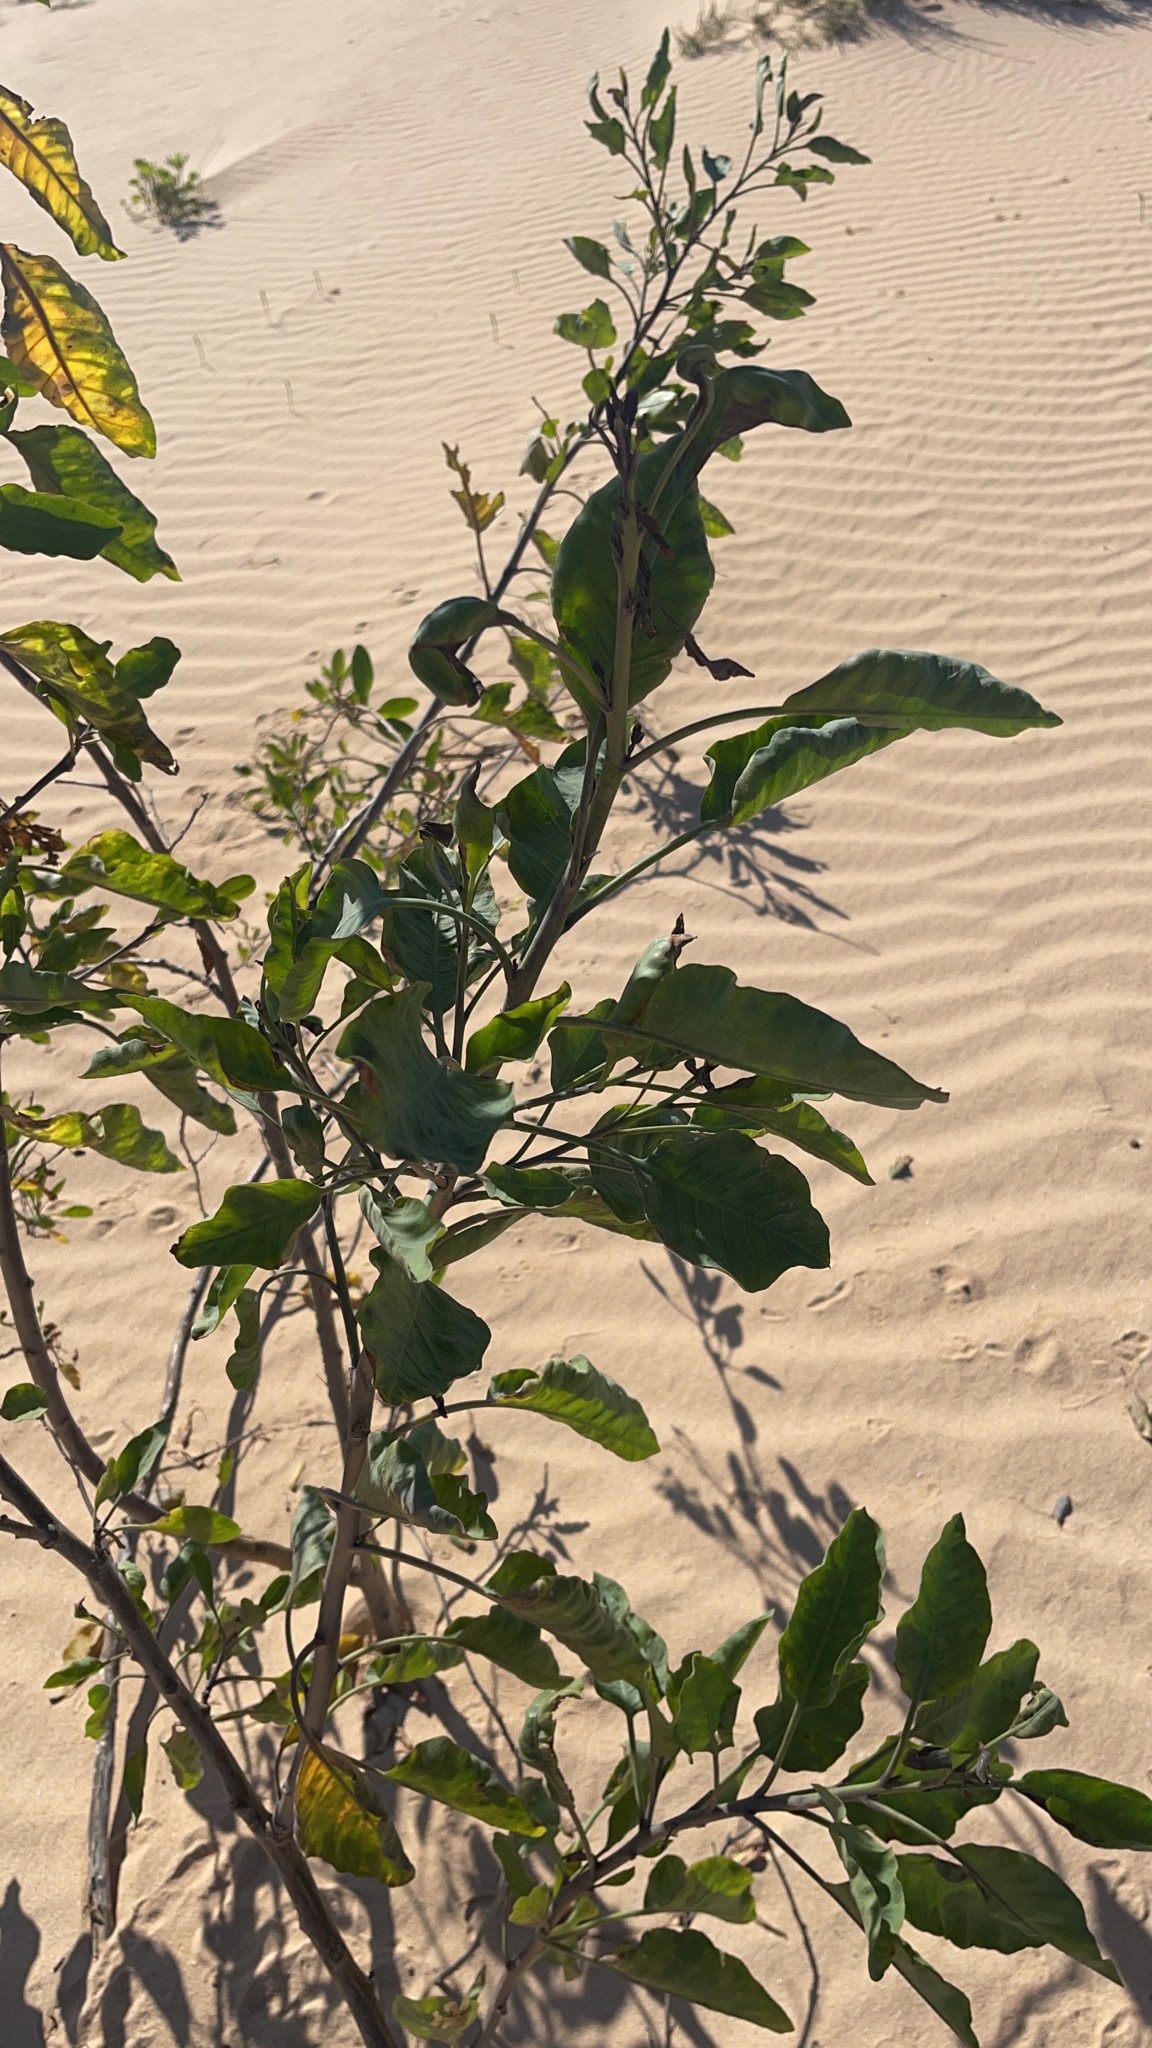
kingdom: Plantae
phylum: Tracheophyta
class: Magnoliopsida
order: Solanales
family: Solanaceae
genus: Nicotiana
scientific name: Nicotiana glauca
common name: Tree tobacco
